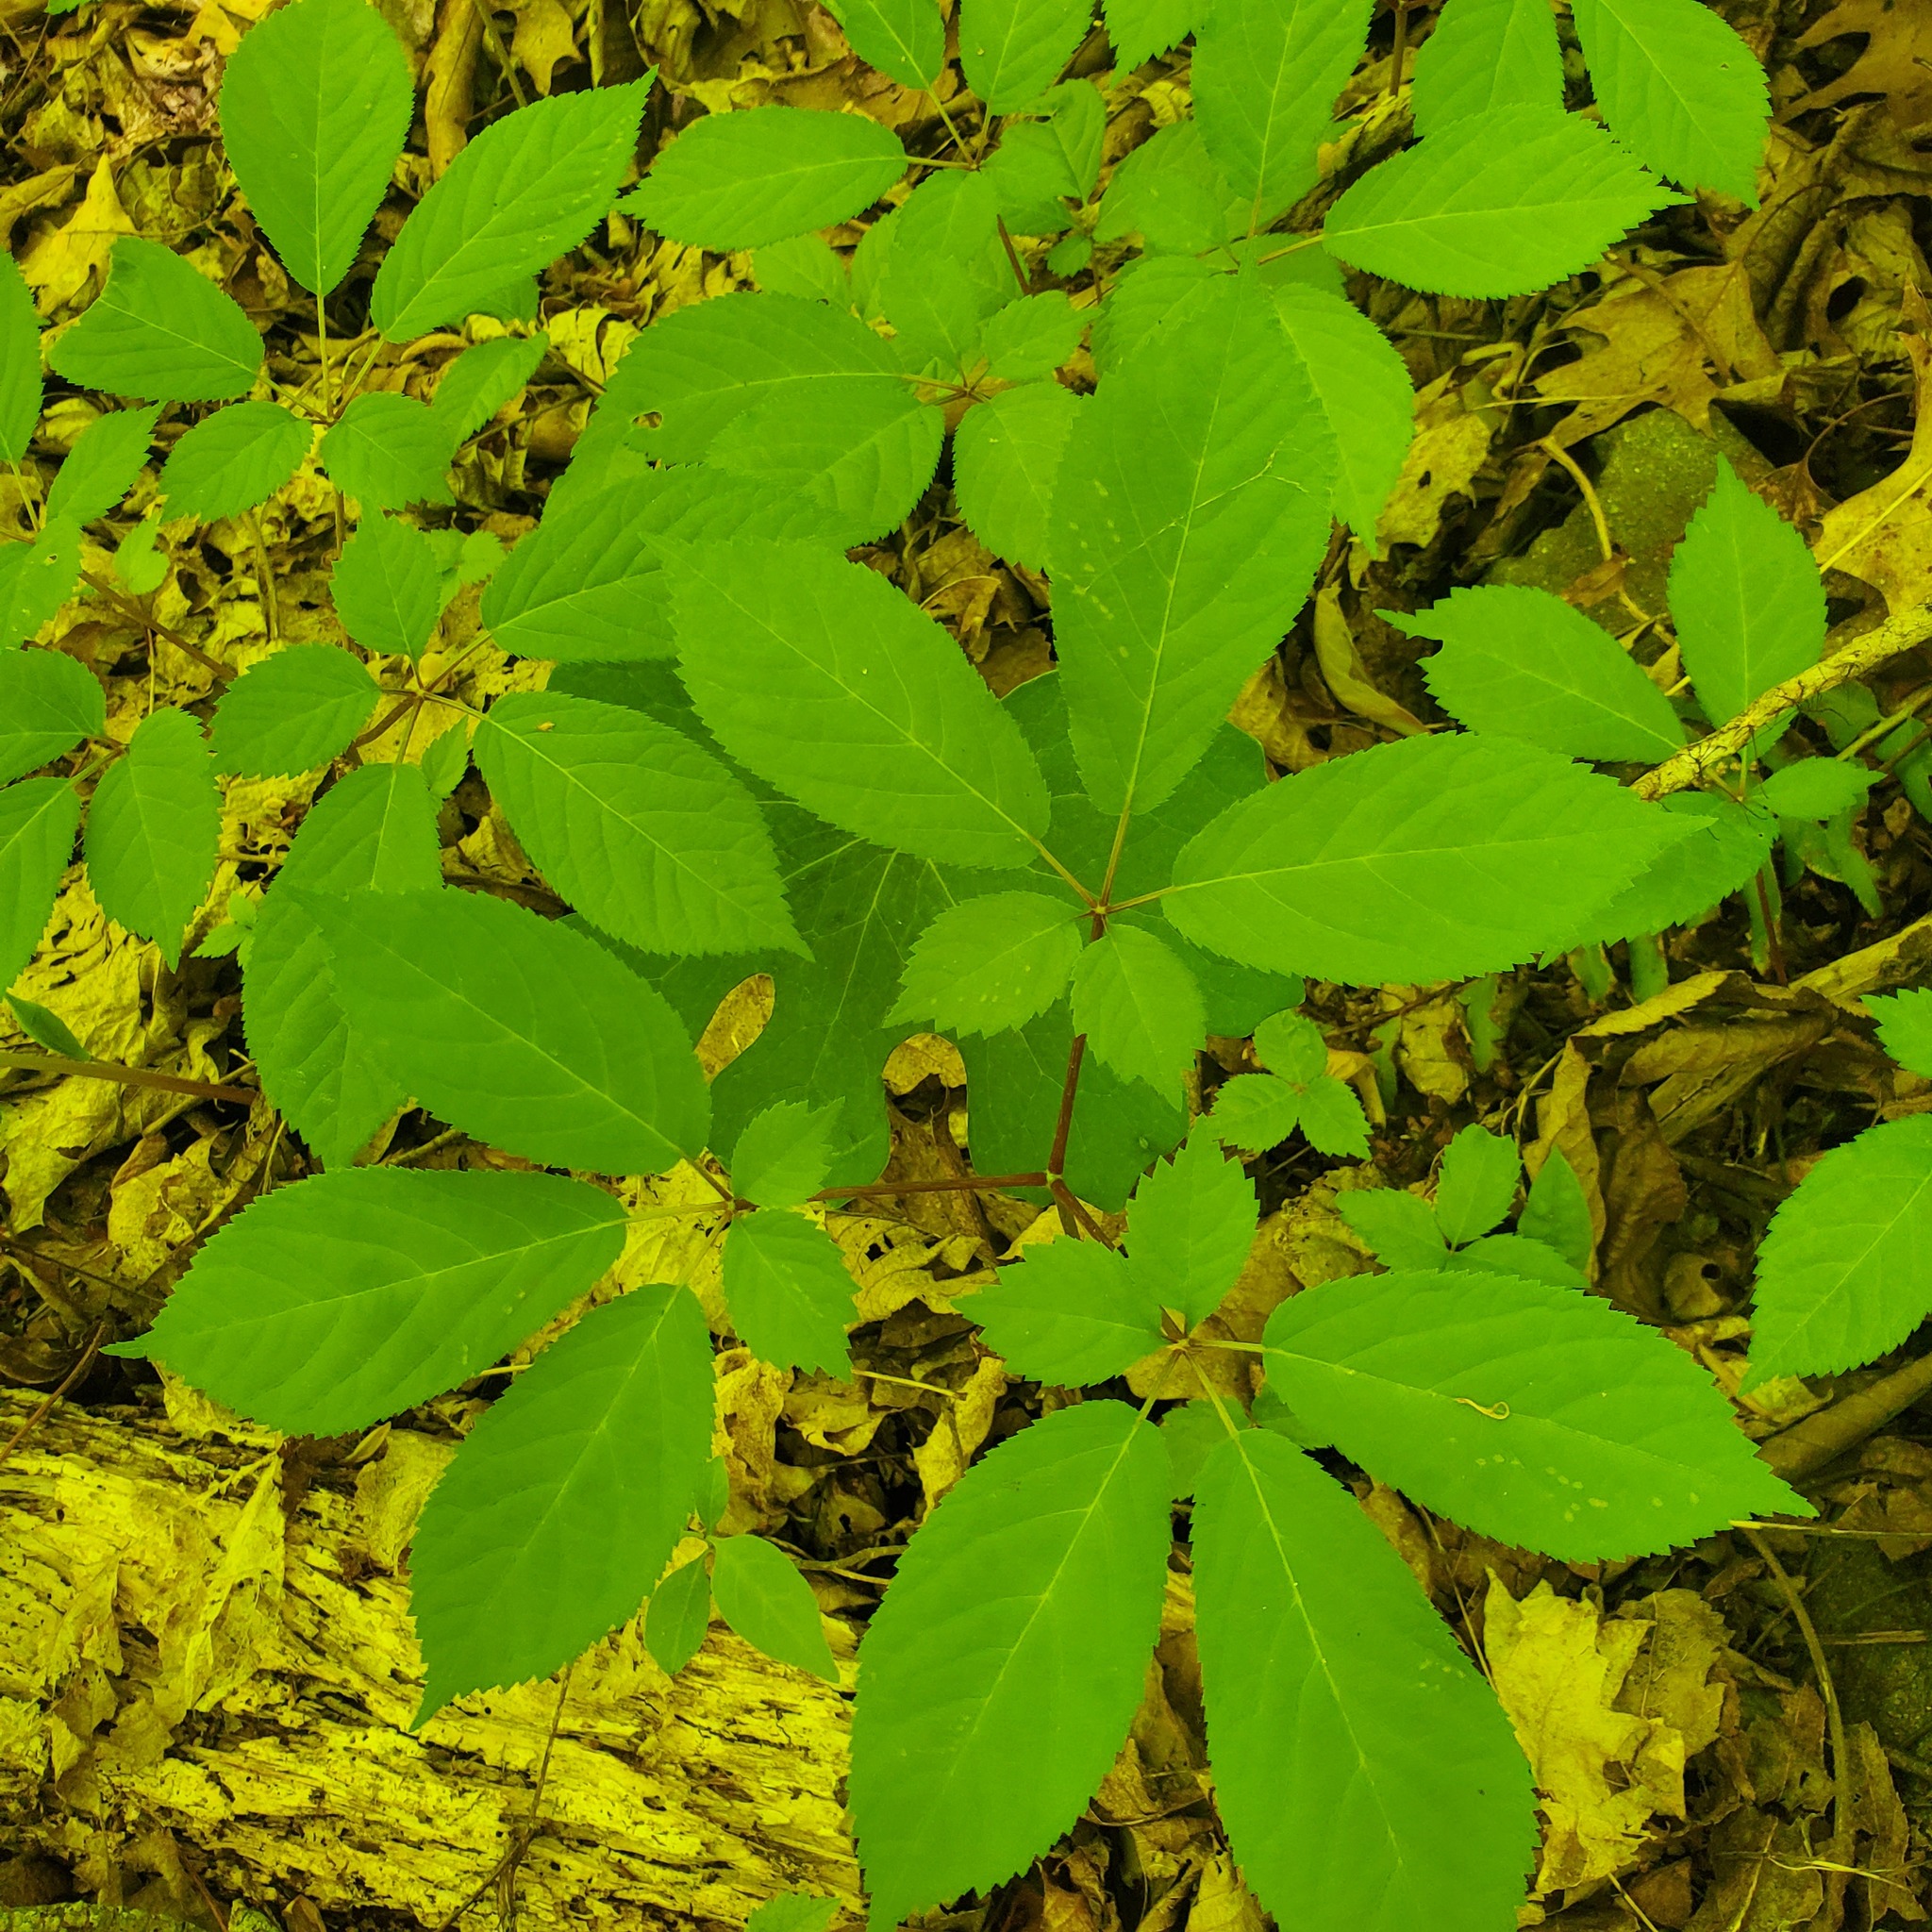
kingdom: Plantae
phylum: Tracheophyta
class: Magnoliopsida
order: Apiales
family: Araliaceae
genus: Panax
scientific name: Panax quinquefolius
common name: American ginseng
